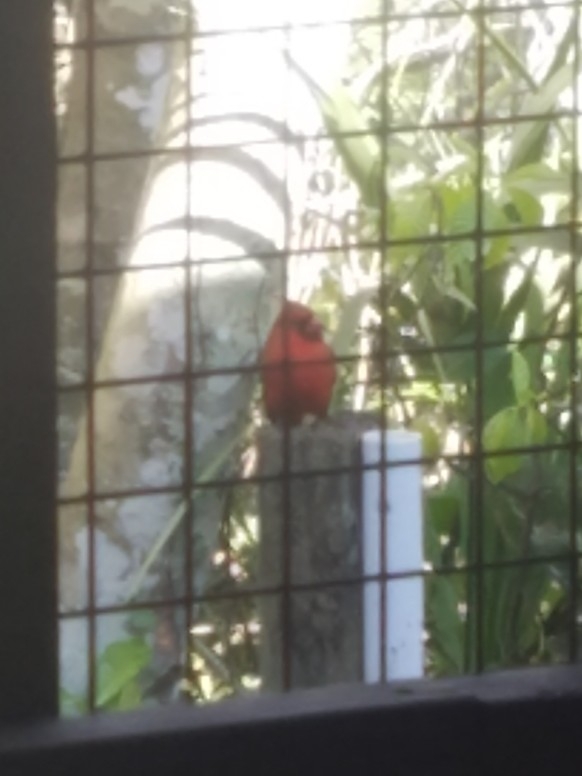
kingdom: Animalia
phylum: Chordata
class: Aves
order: Passeriformes
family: Cardinalidae
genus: Cardinalis
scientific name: Cardinalis cardinalis
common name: Northern cardinal
